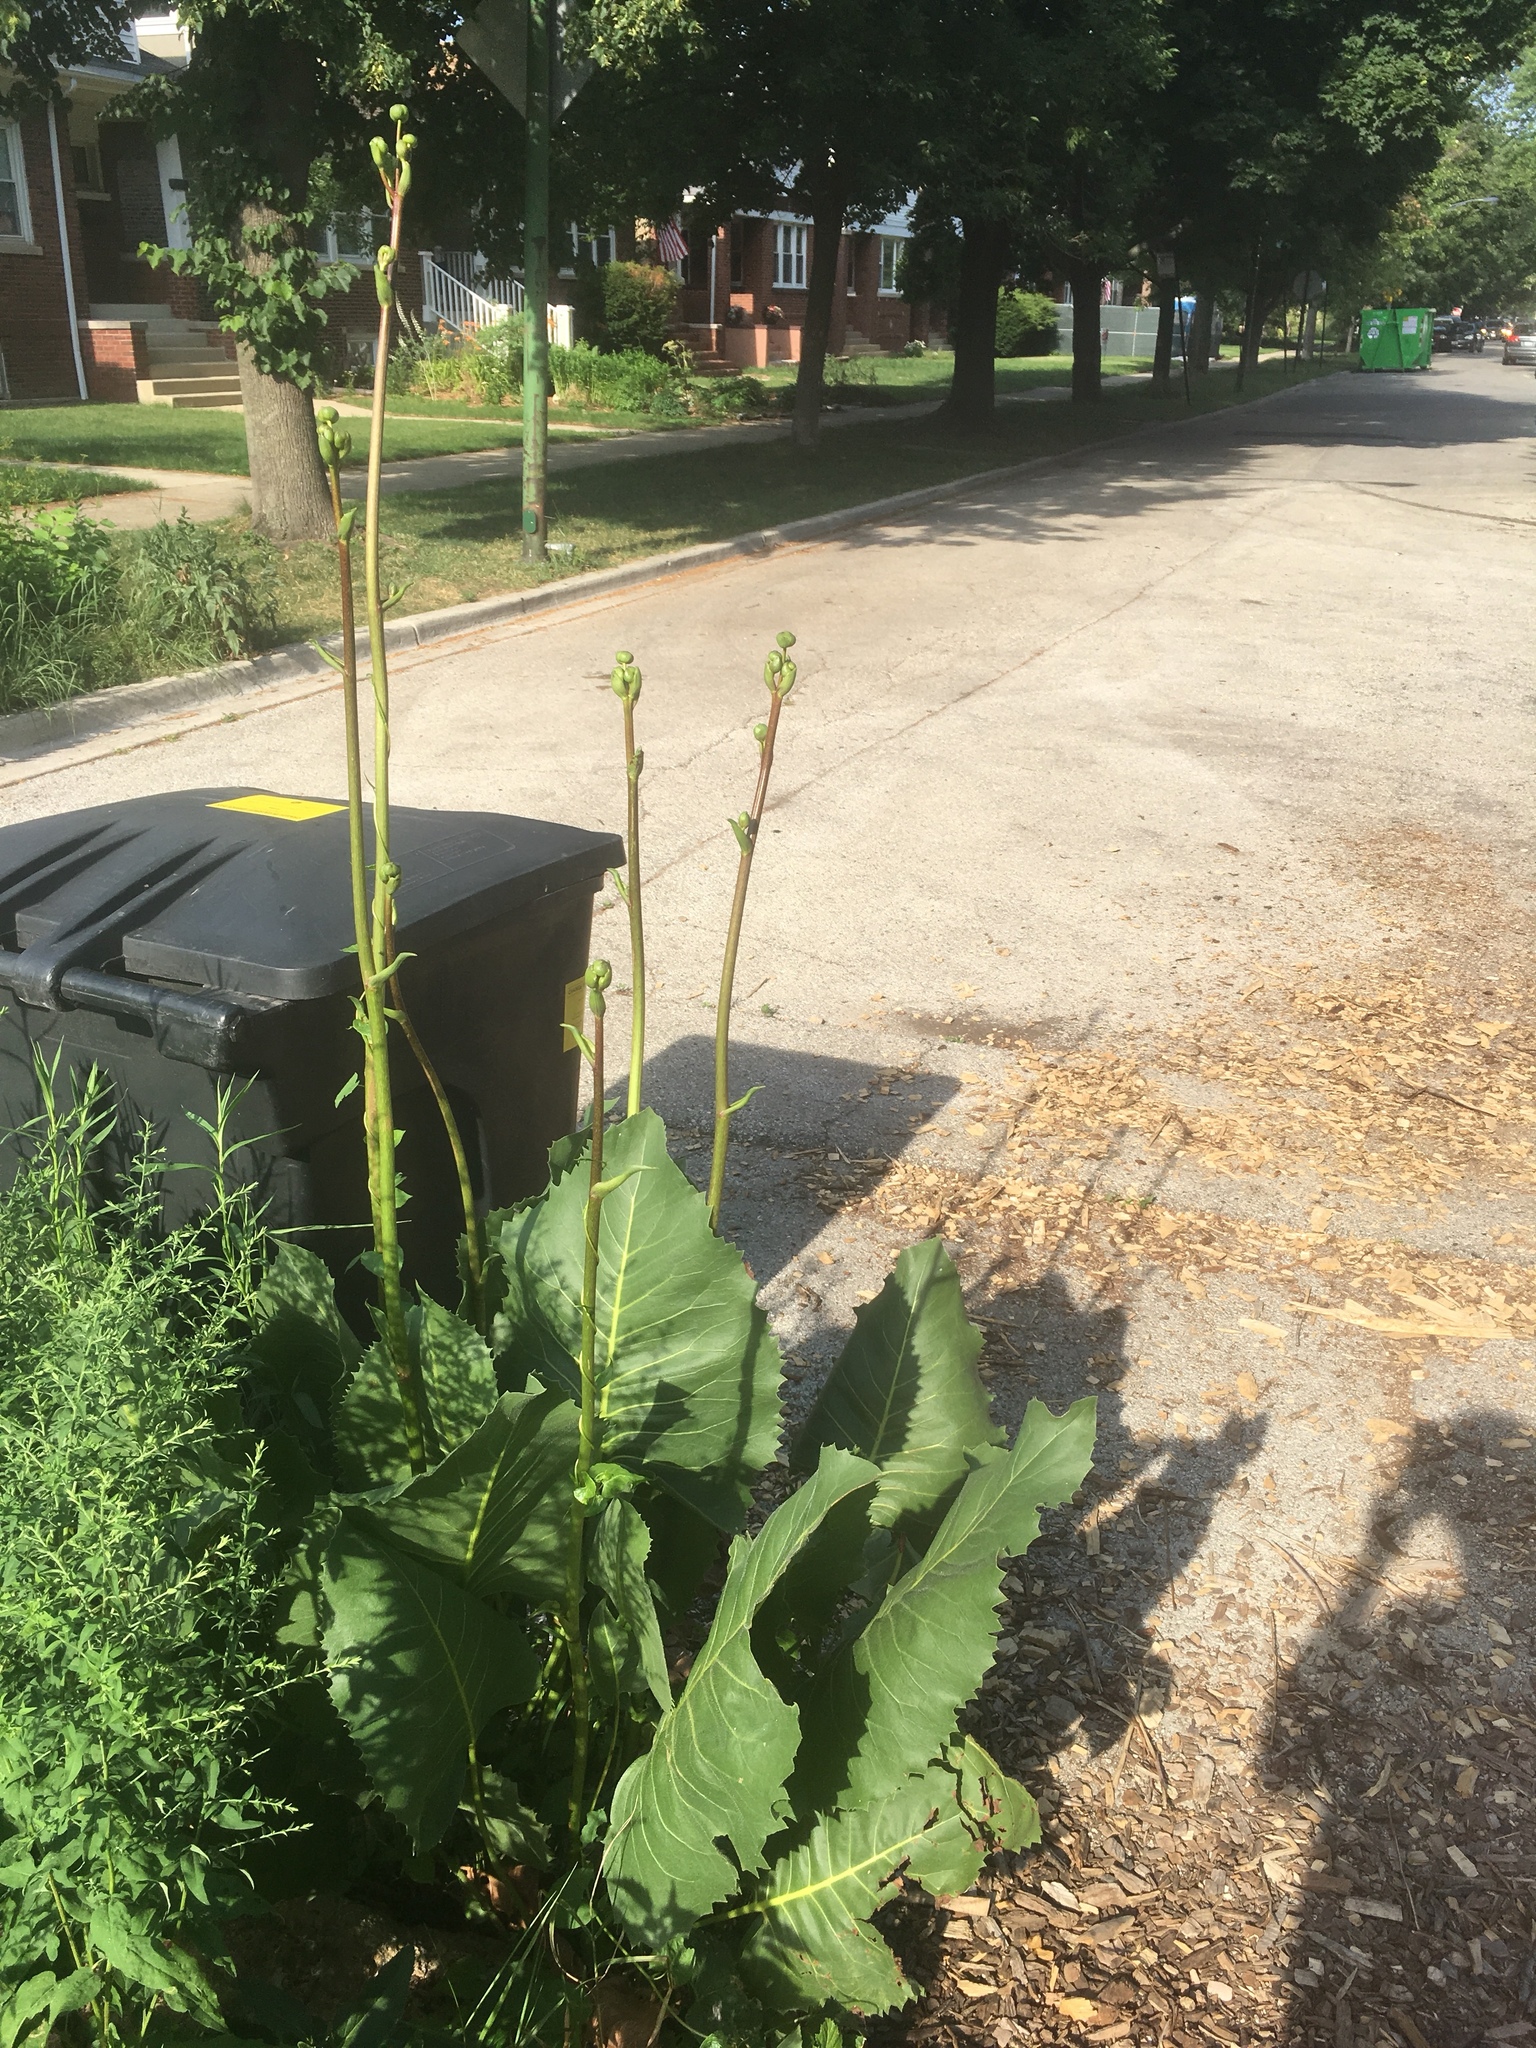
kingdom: Plantae
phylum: Tracheophyta
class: Magnoliopsida
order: Asterales
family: Asteraceae
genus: Silphium
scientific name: Silphium terebinthinaceum
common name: Basal-leaf rosinweed
